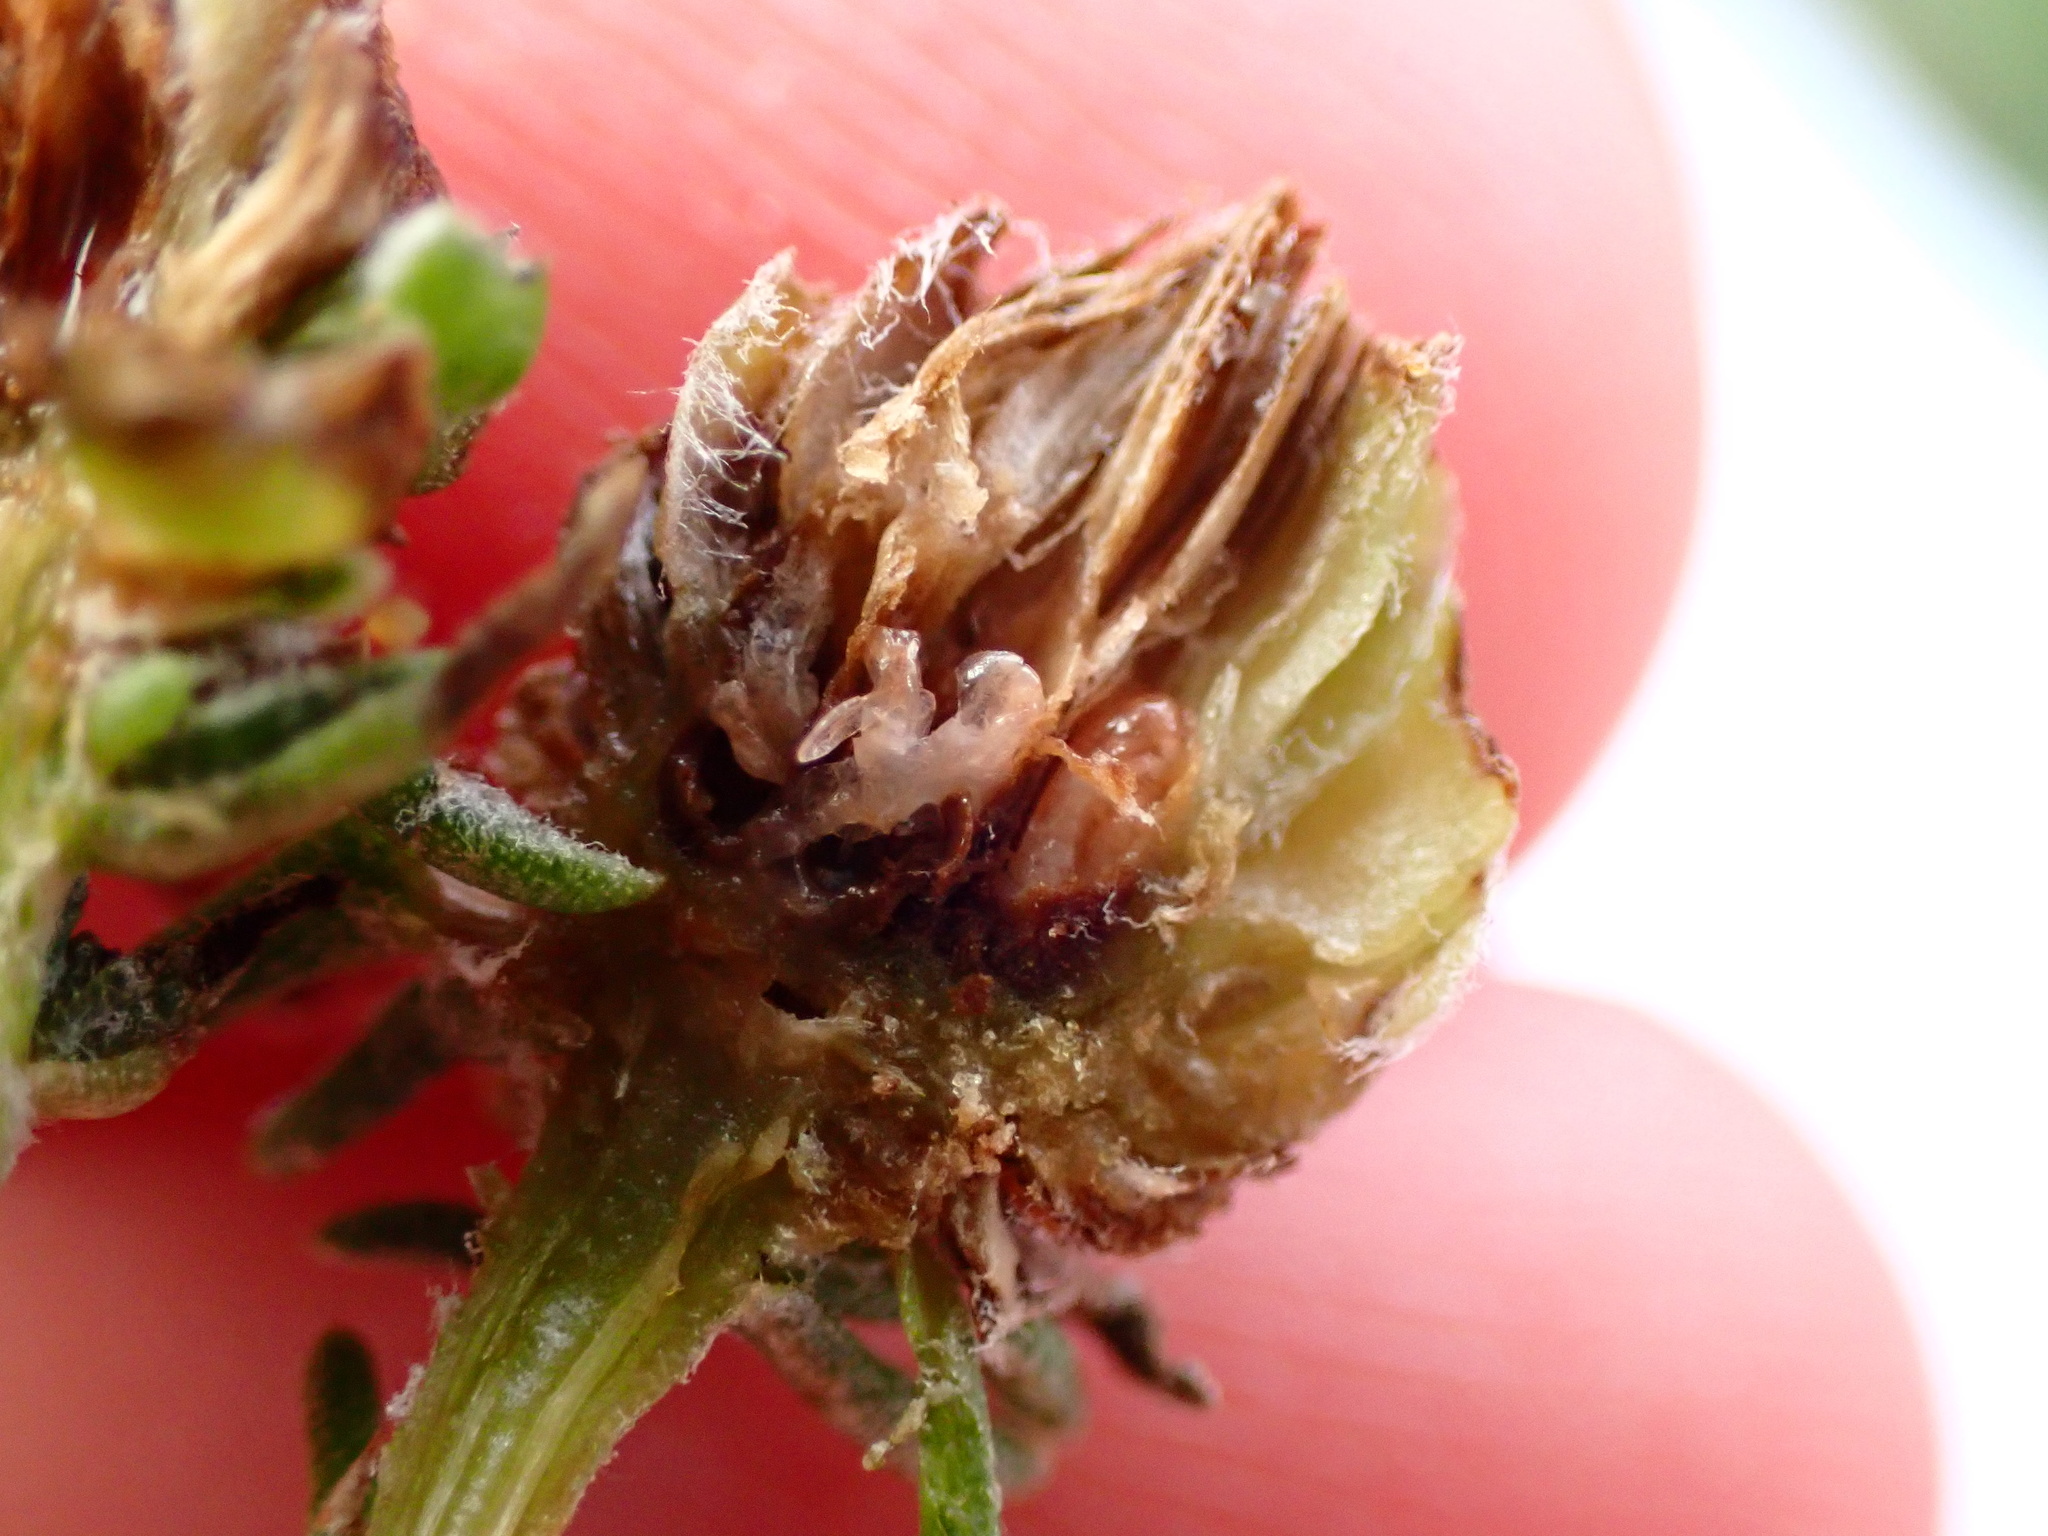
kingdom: Animalia
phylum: Arthropoda
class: Insecta
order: Diptera
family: Cecidomyiidae
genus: Prodiplosis
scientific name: Prodiplosis falcata
